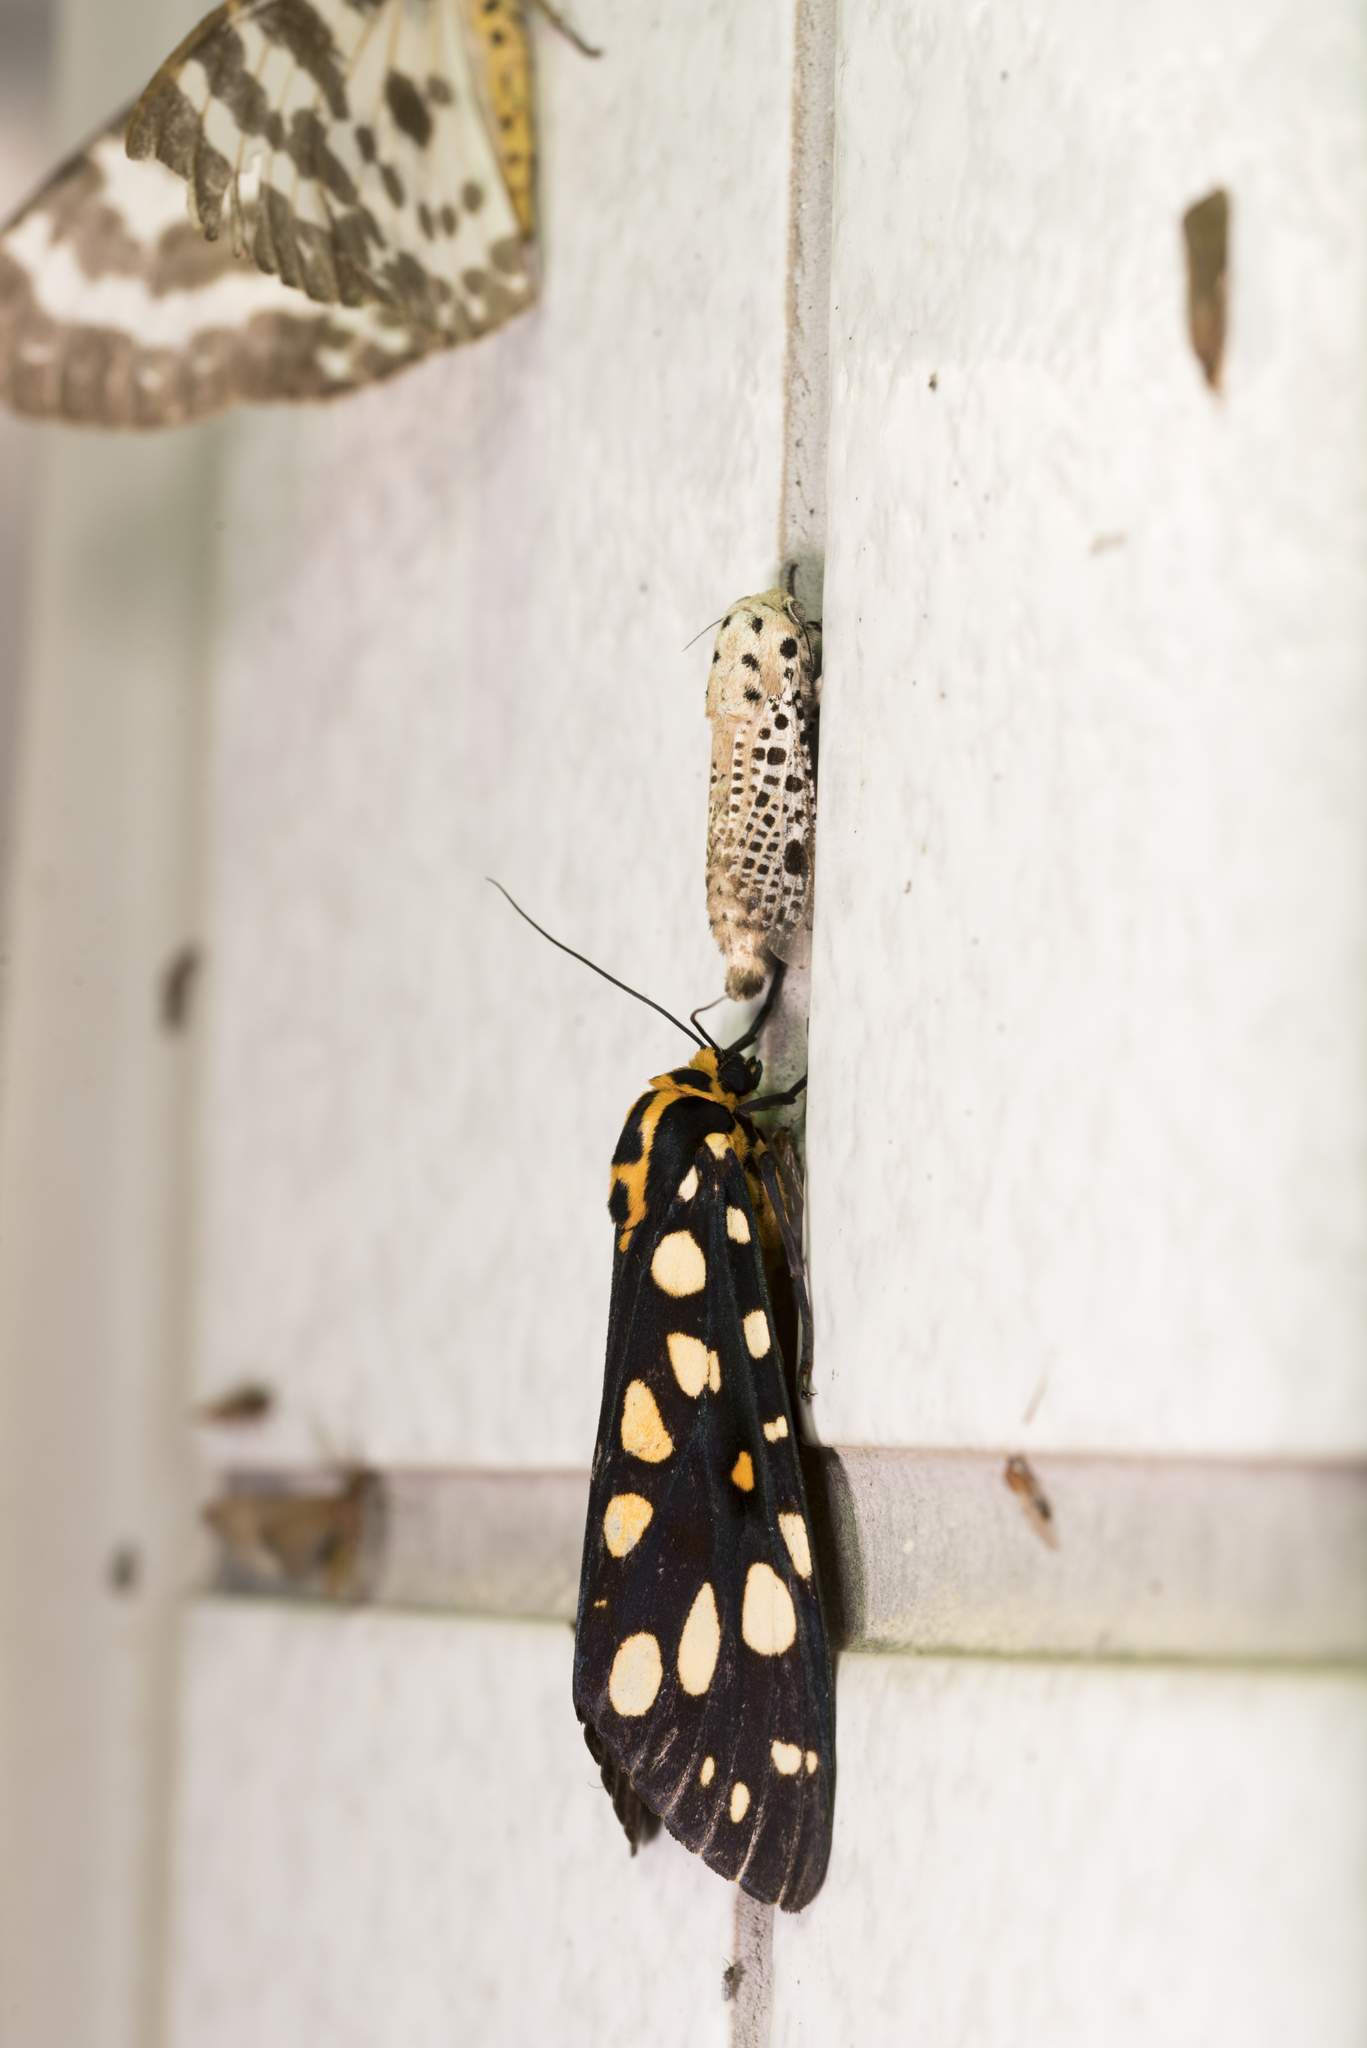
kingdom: Animalia
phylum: Arthropoda
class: Insecta
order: Lepidoptera
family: Erebidae
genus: Aglaomorpha
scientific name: Aglaomorpha histrio
